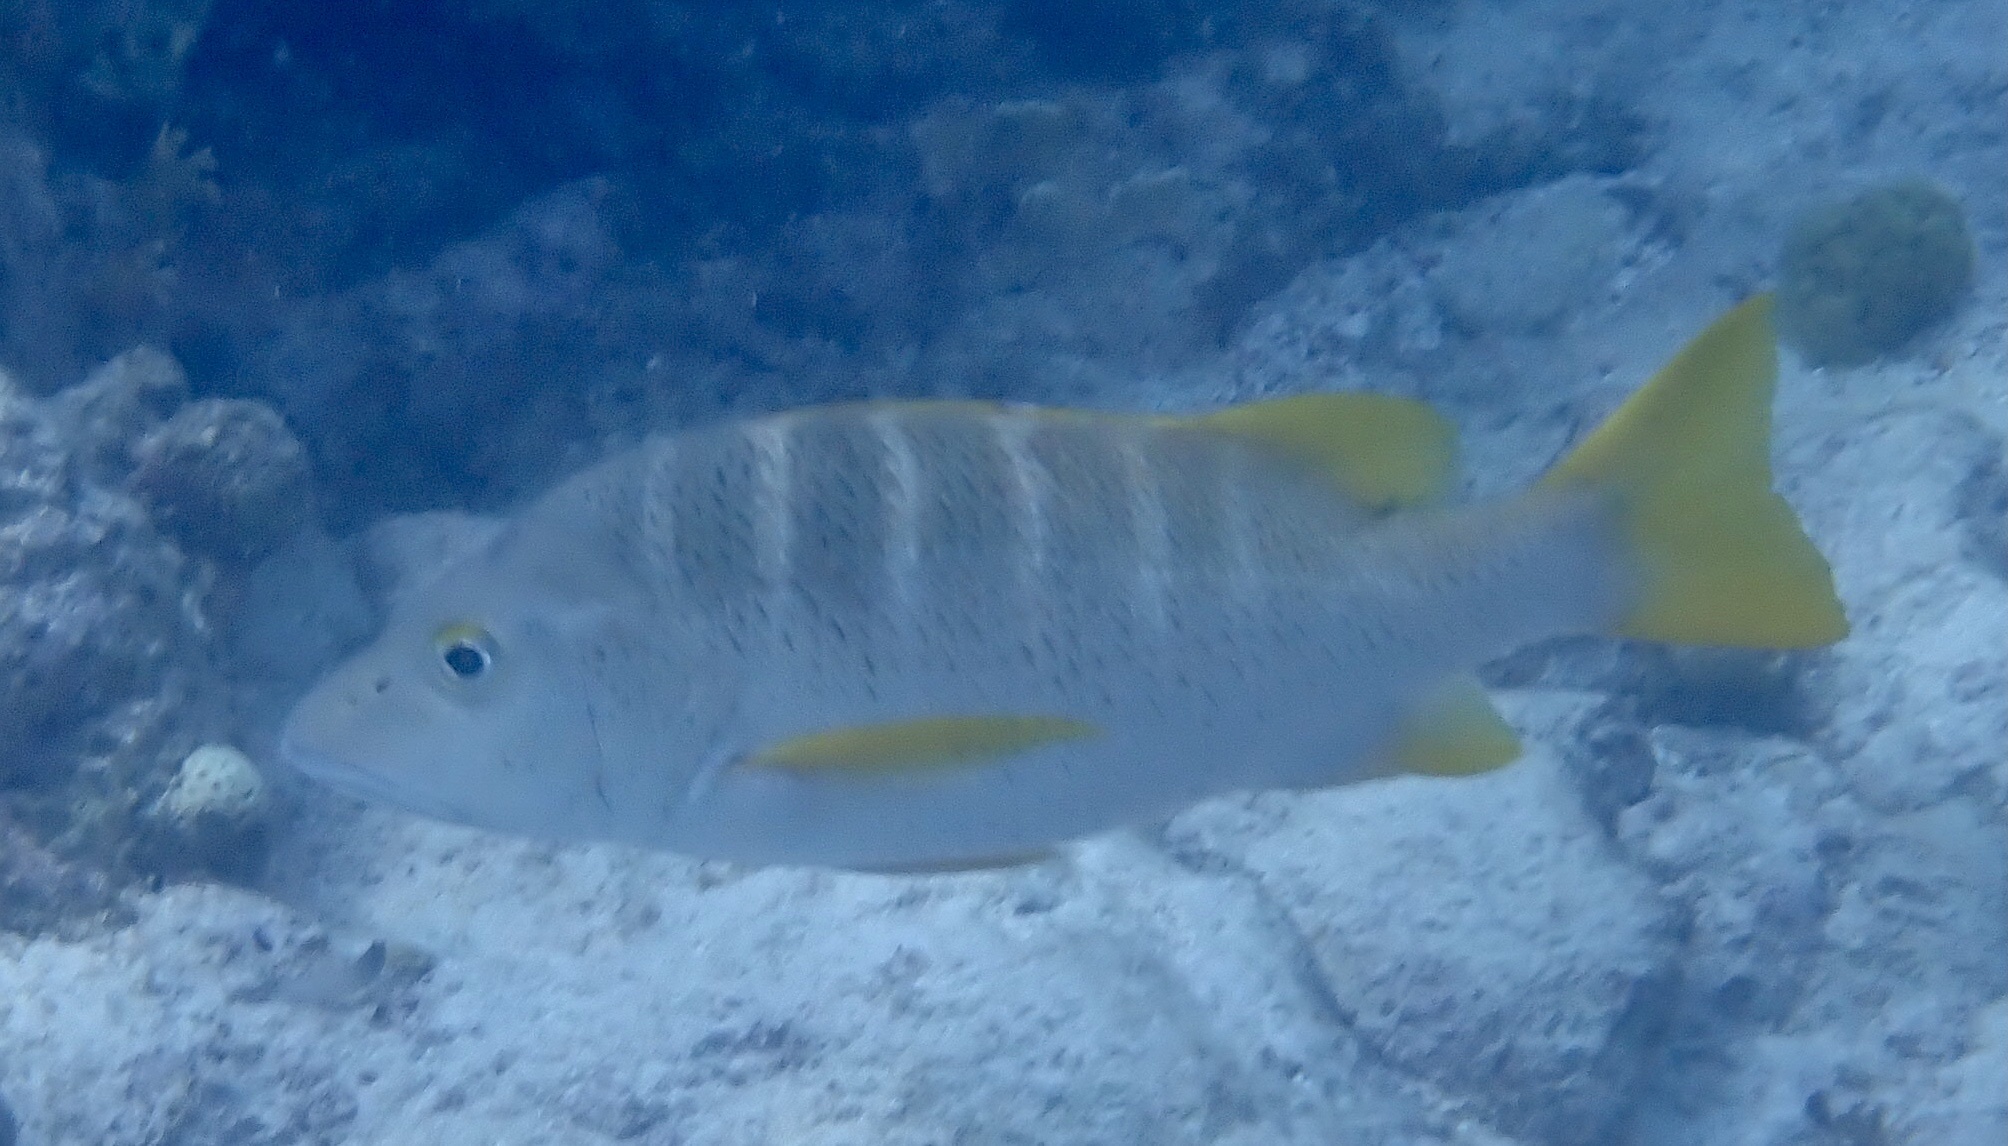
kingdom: Animalia
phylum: Chordata
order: Perciformes
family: Lutjanidae
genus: Lutjanus
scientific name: Lutjanus apodus
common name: Schoolmaster
